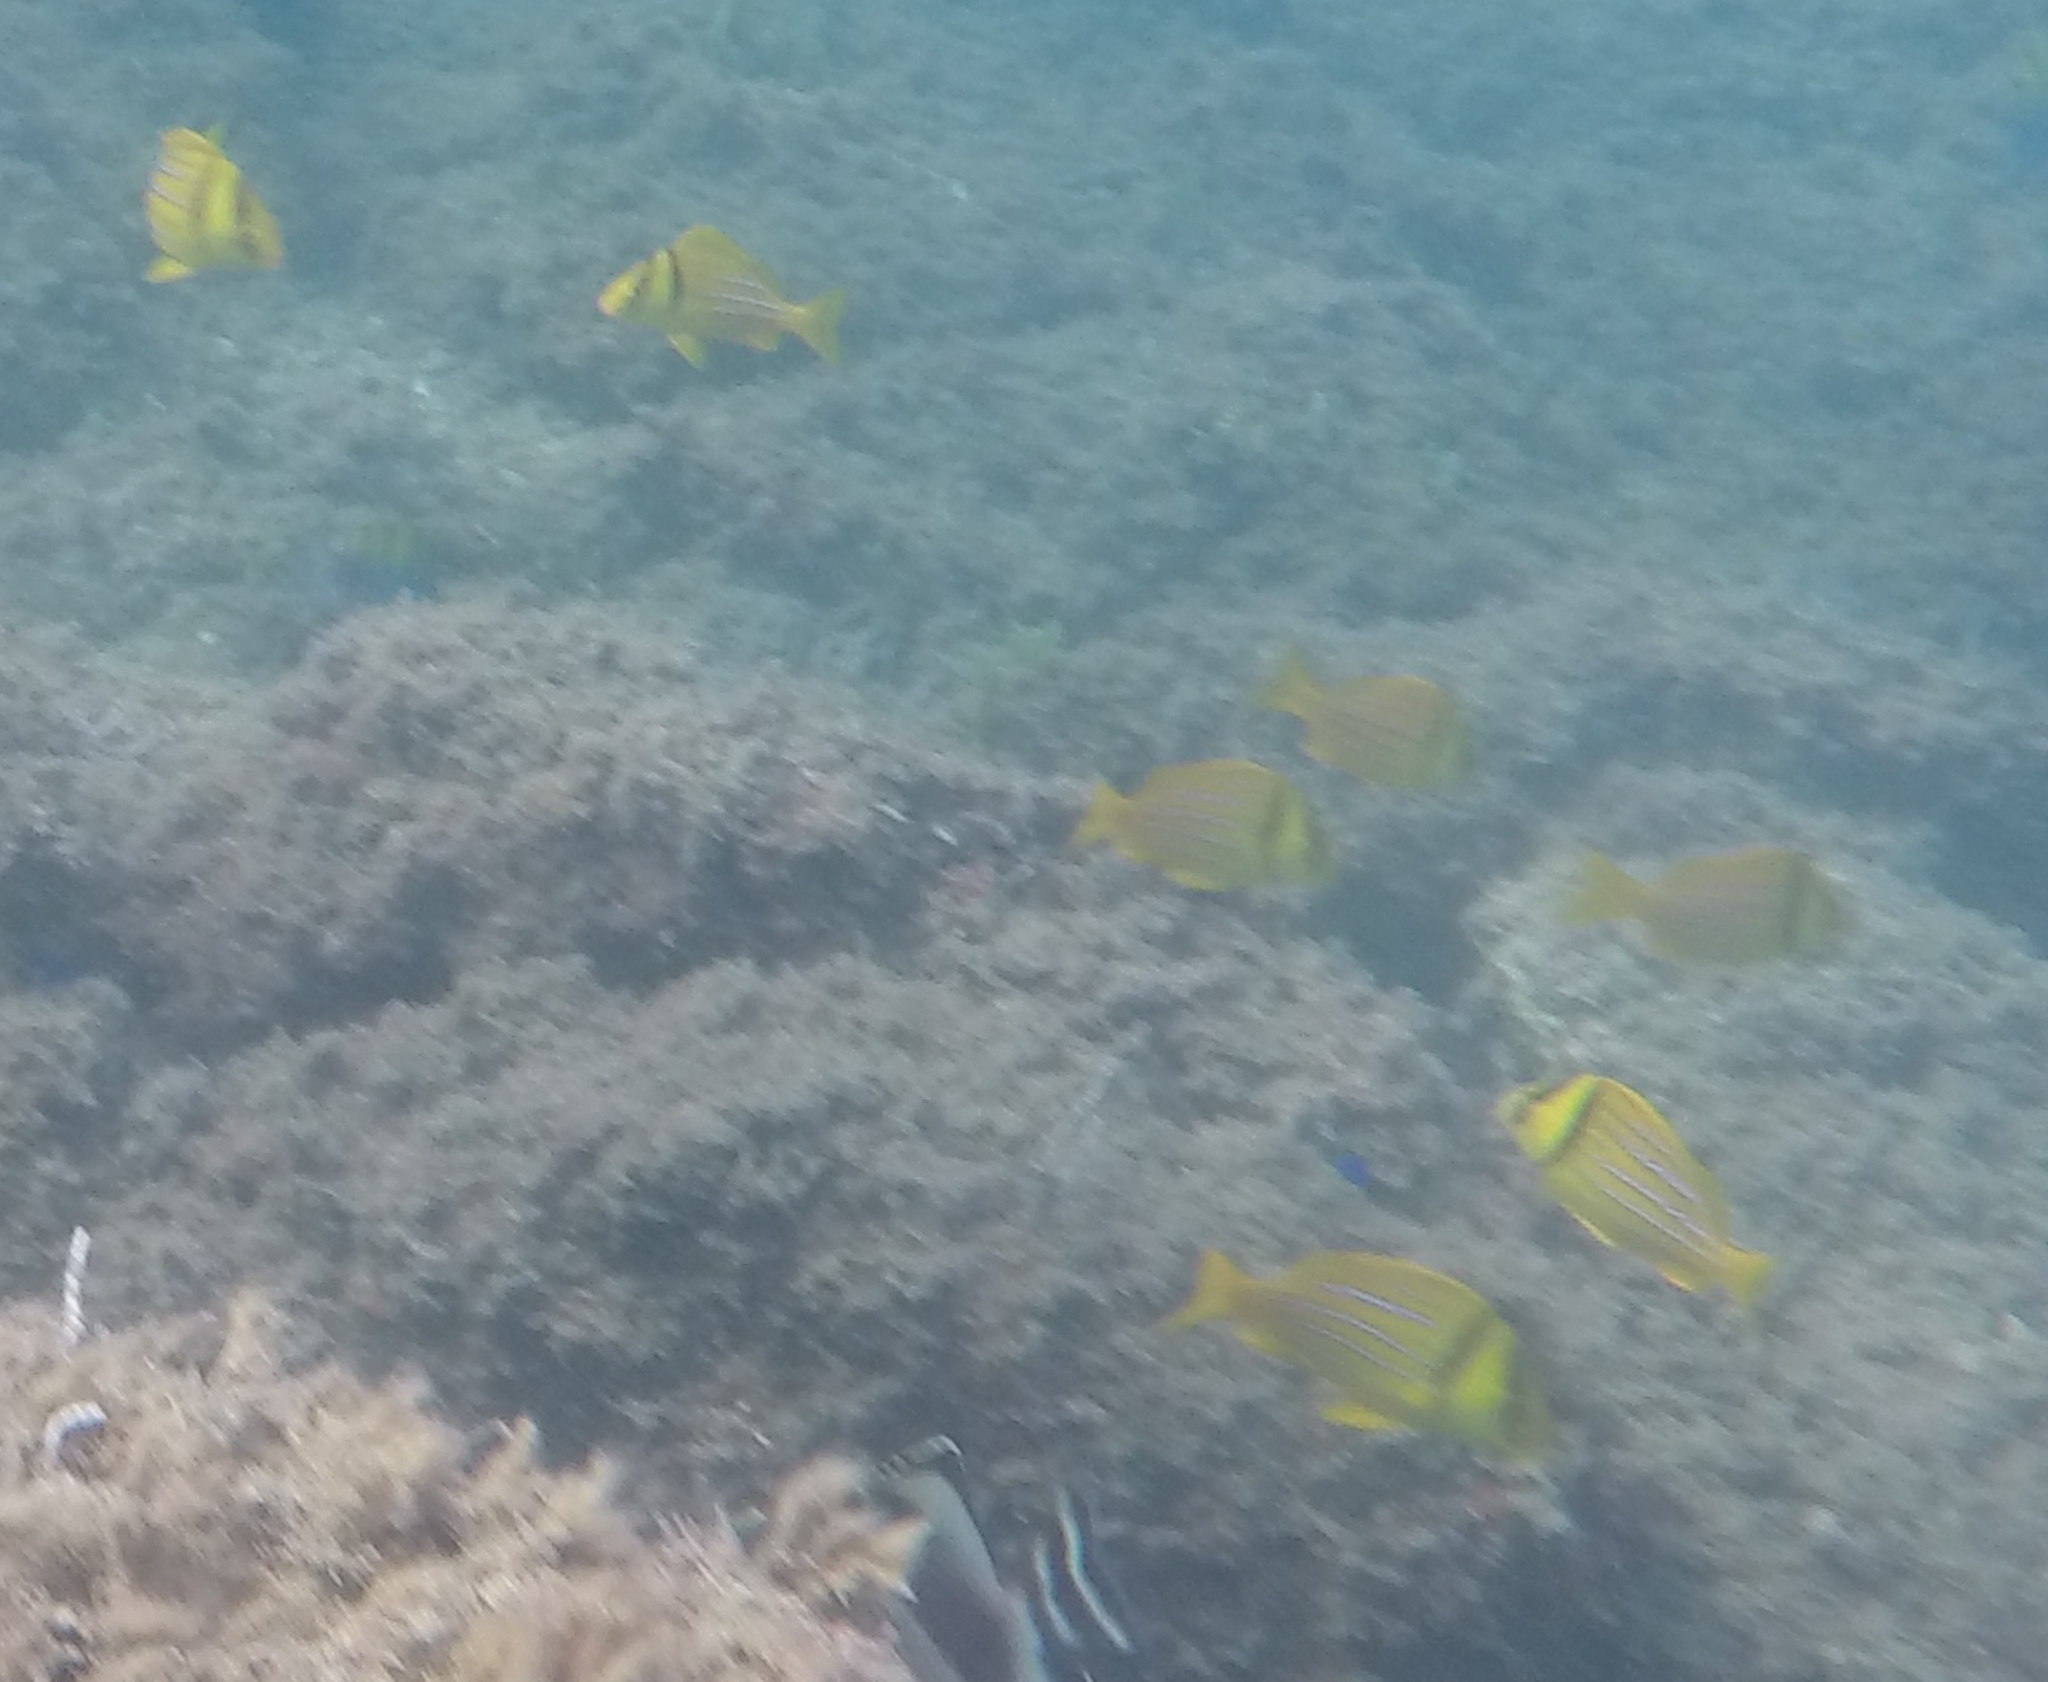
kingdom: Animalia
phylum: Chordata
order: Perciformes
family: Haemulidae
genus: Anisotremus
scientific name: Anisotremus taeniatus
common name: Catalina
